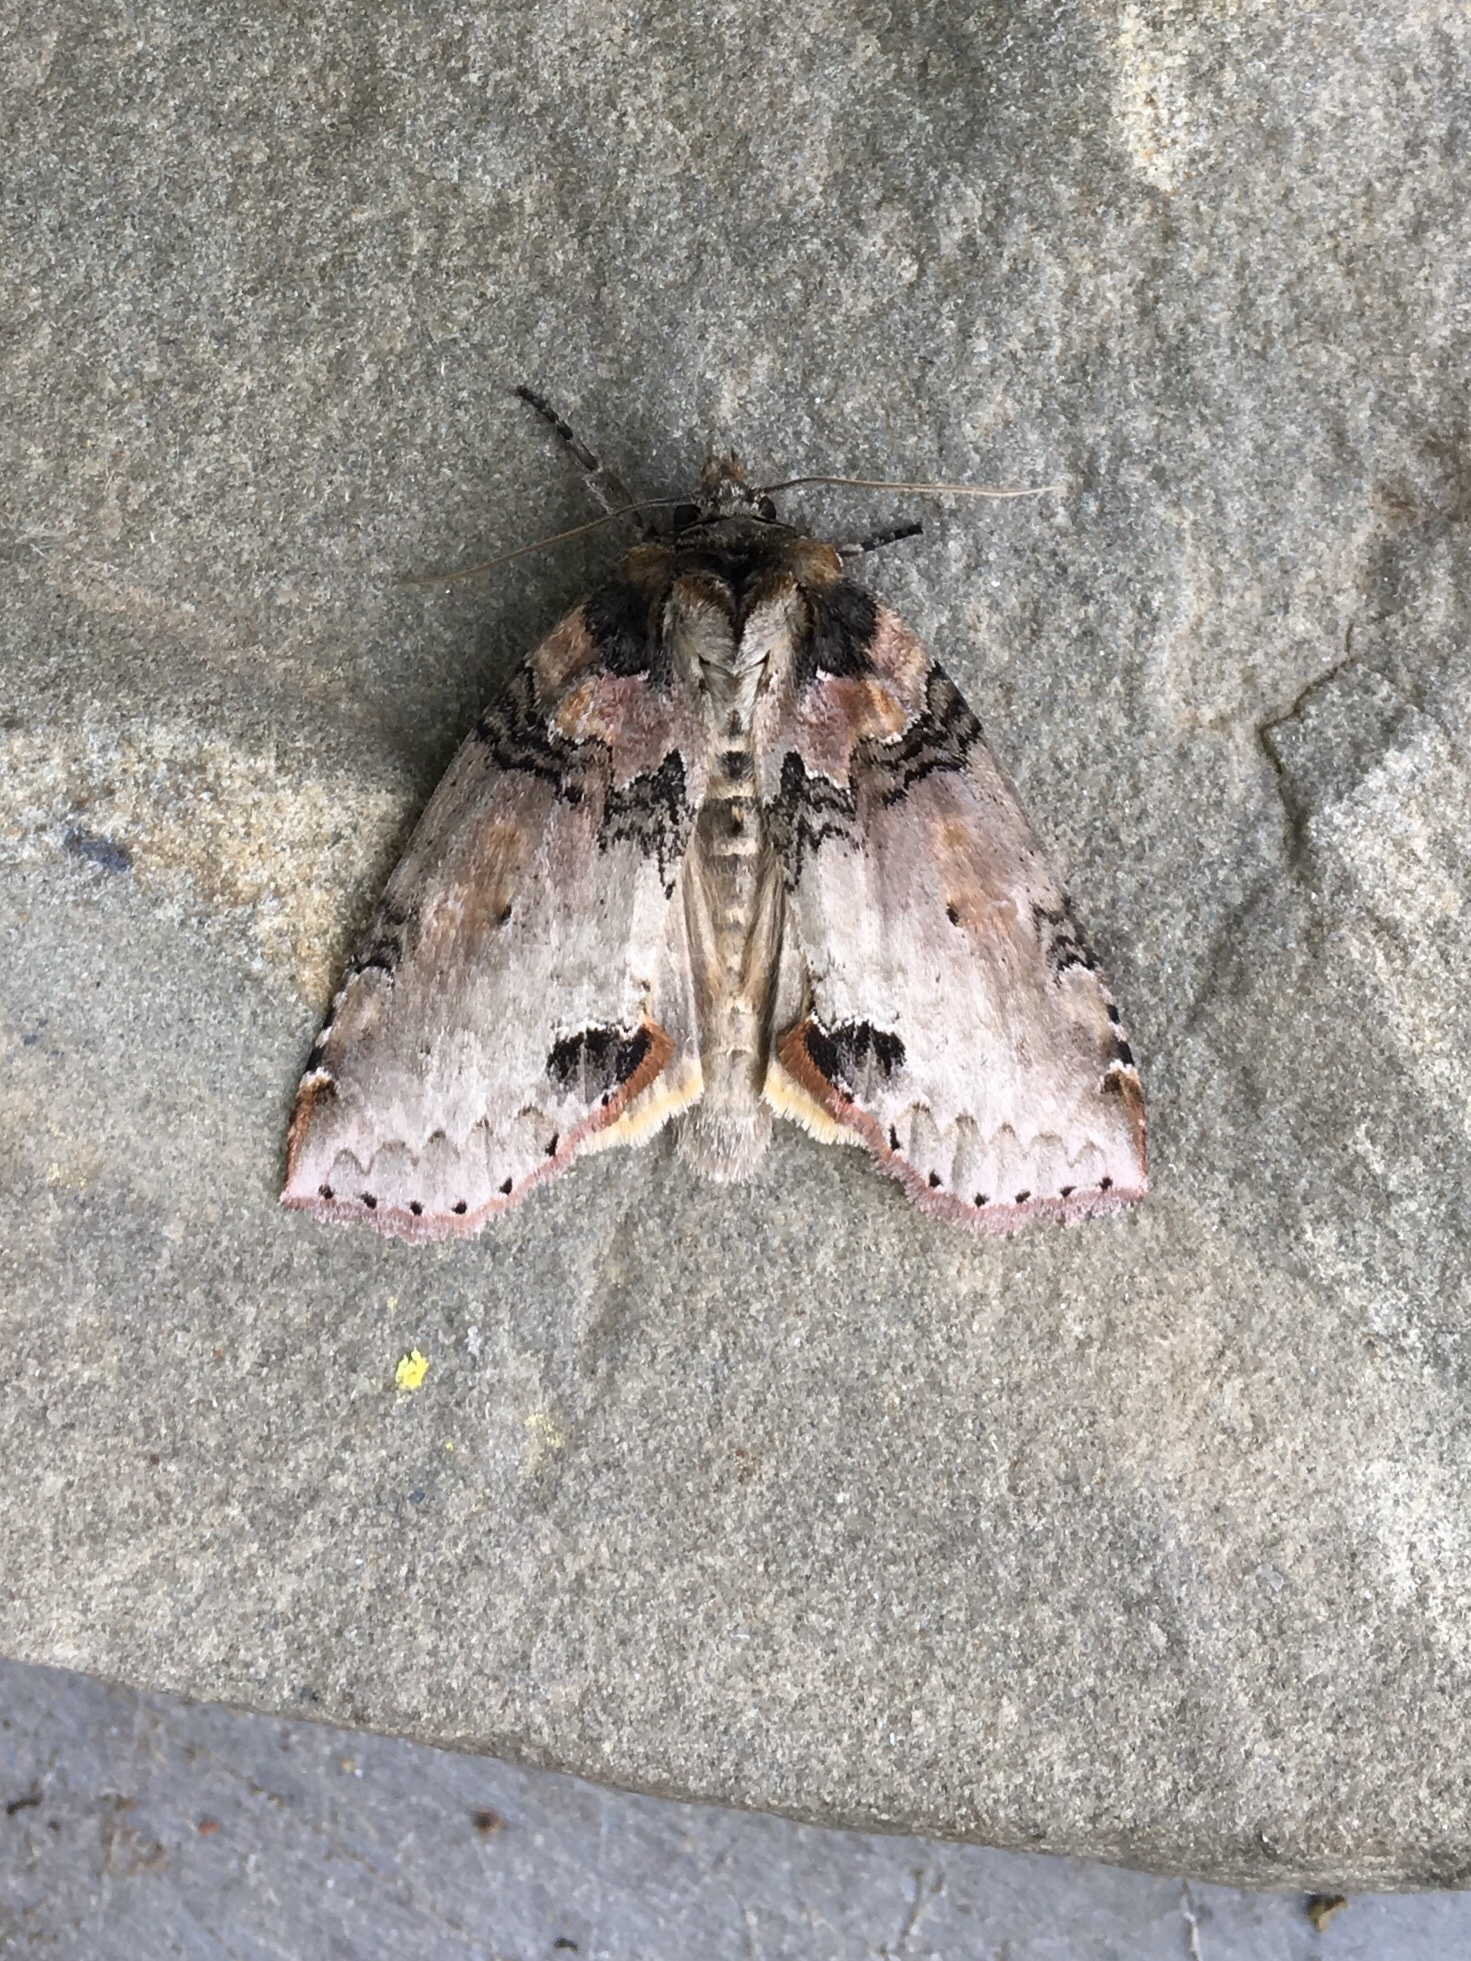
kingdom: Animalia
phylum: Arthropoda
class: Insecta
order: Lepidoptera
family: Drepanidae
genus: Pseudothyatira
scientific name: Pseudothyatira cymatophoroides
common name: Tufted thyatirid moth
